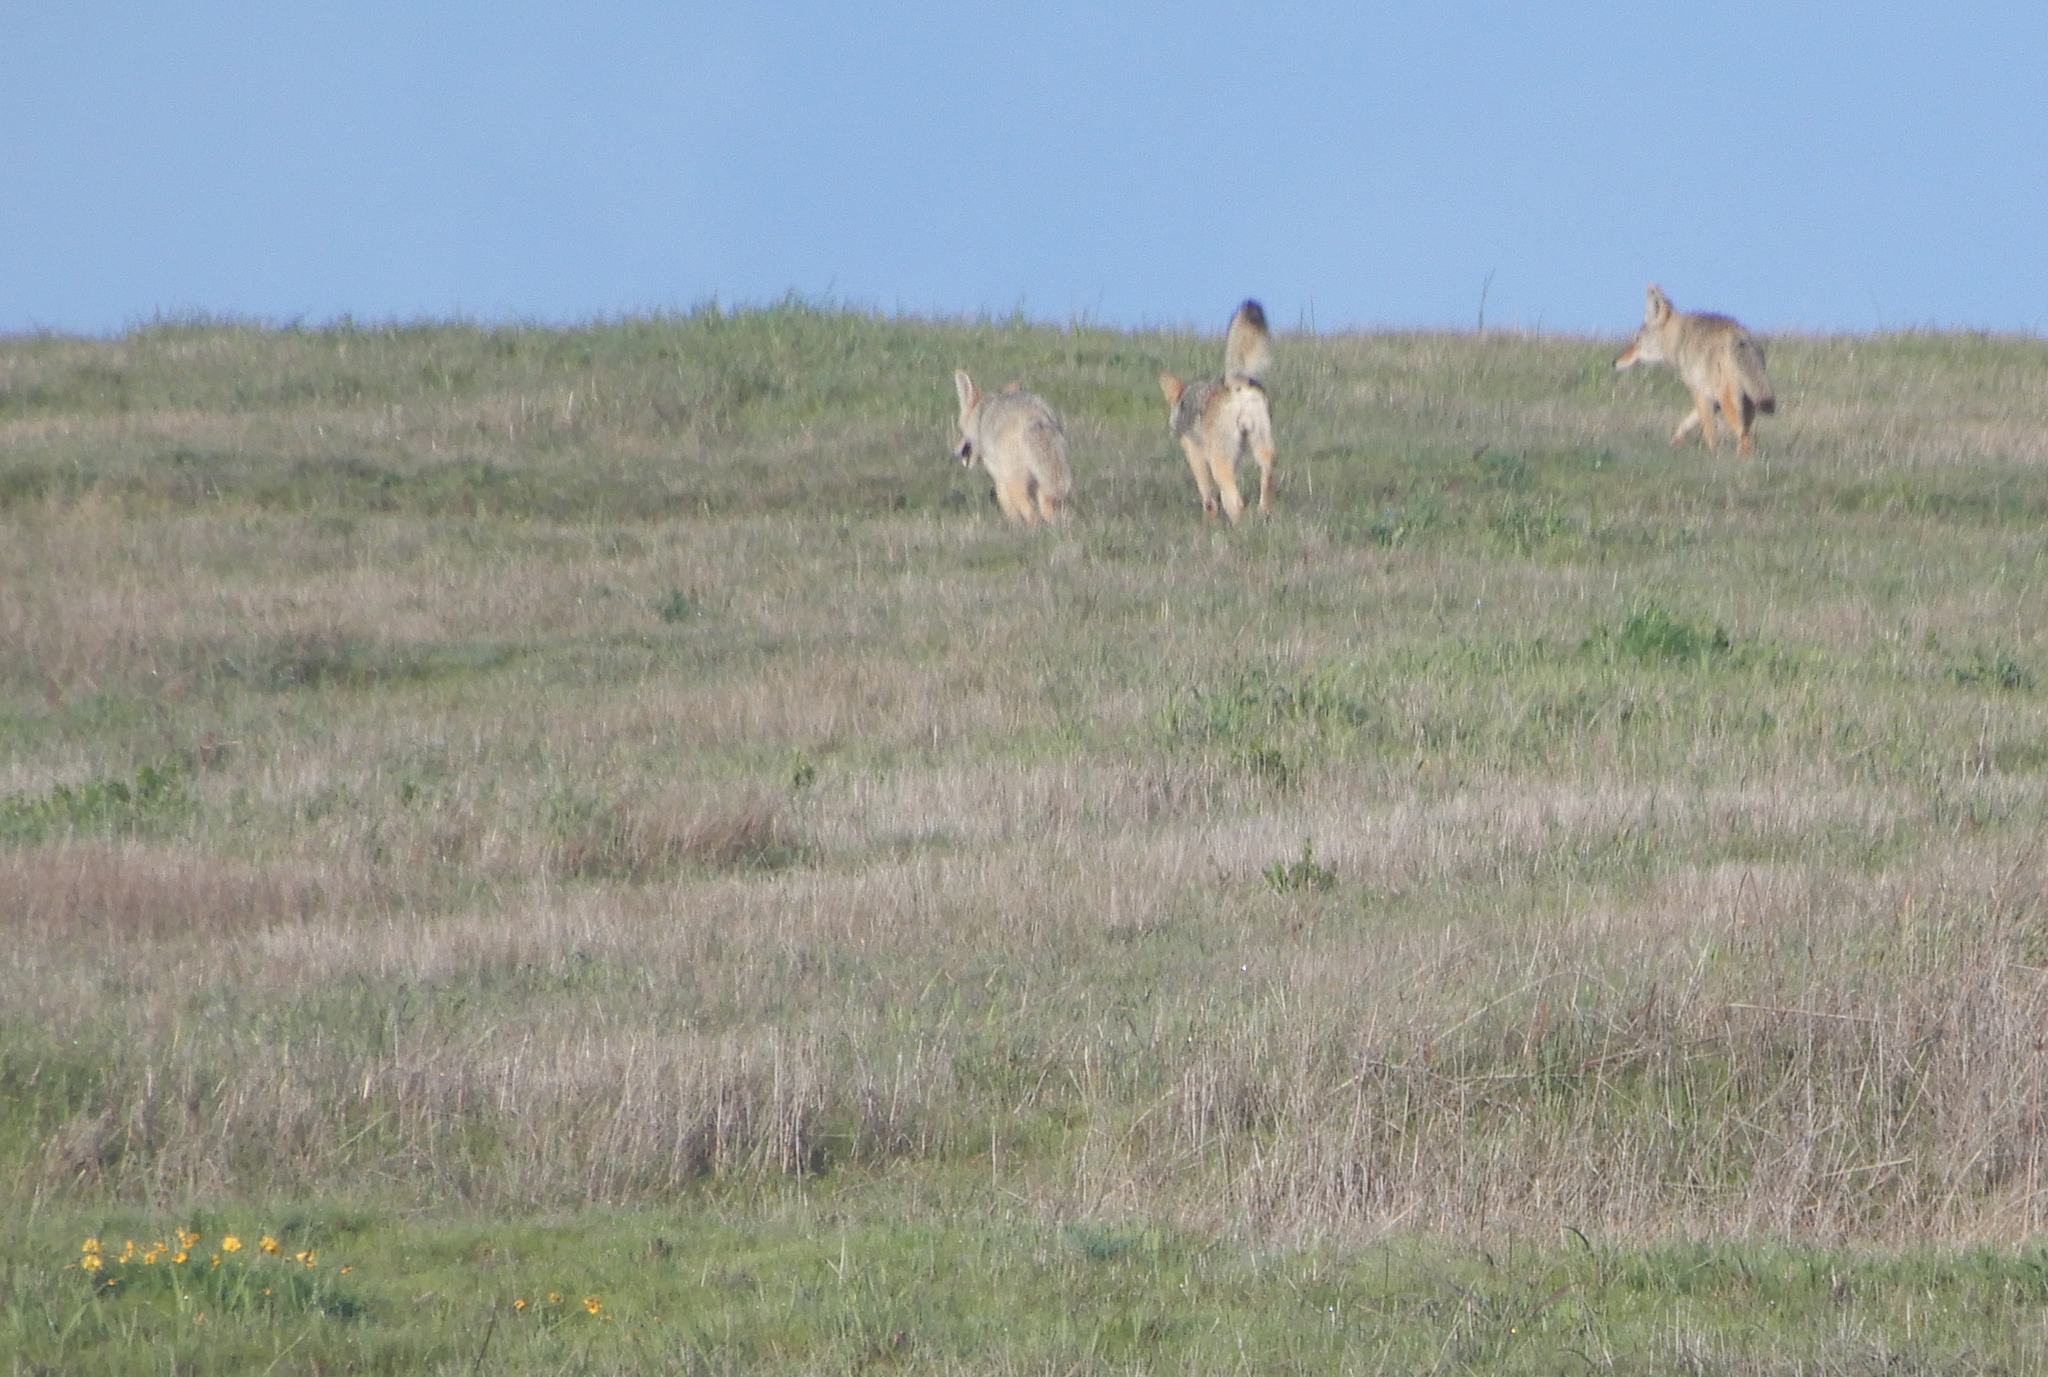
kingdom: Animalia
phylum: Chordata
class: Mammalia
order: Carnivora
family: Canidae
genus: Canis
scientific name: Canis latrans
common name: Coyote
